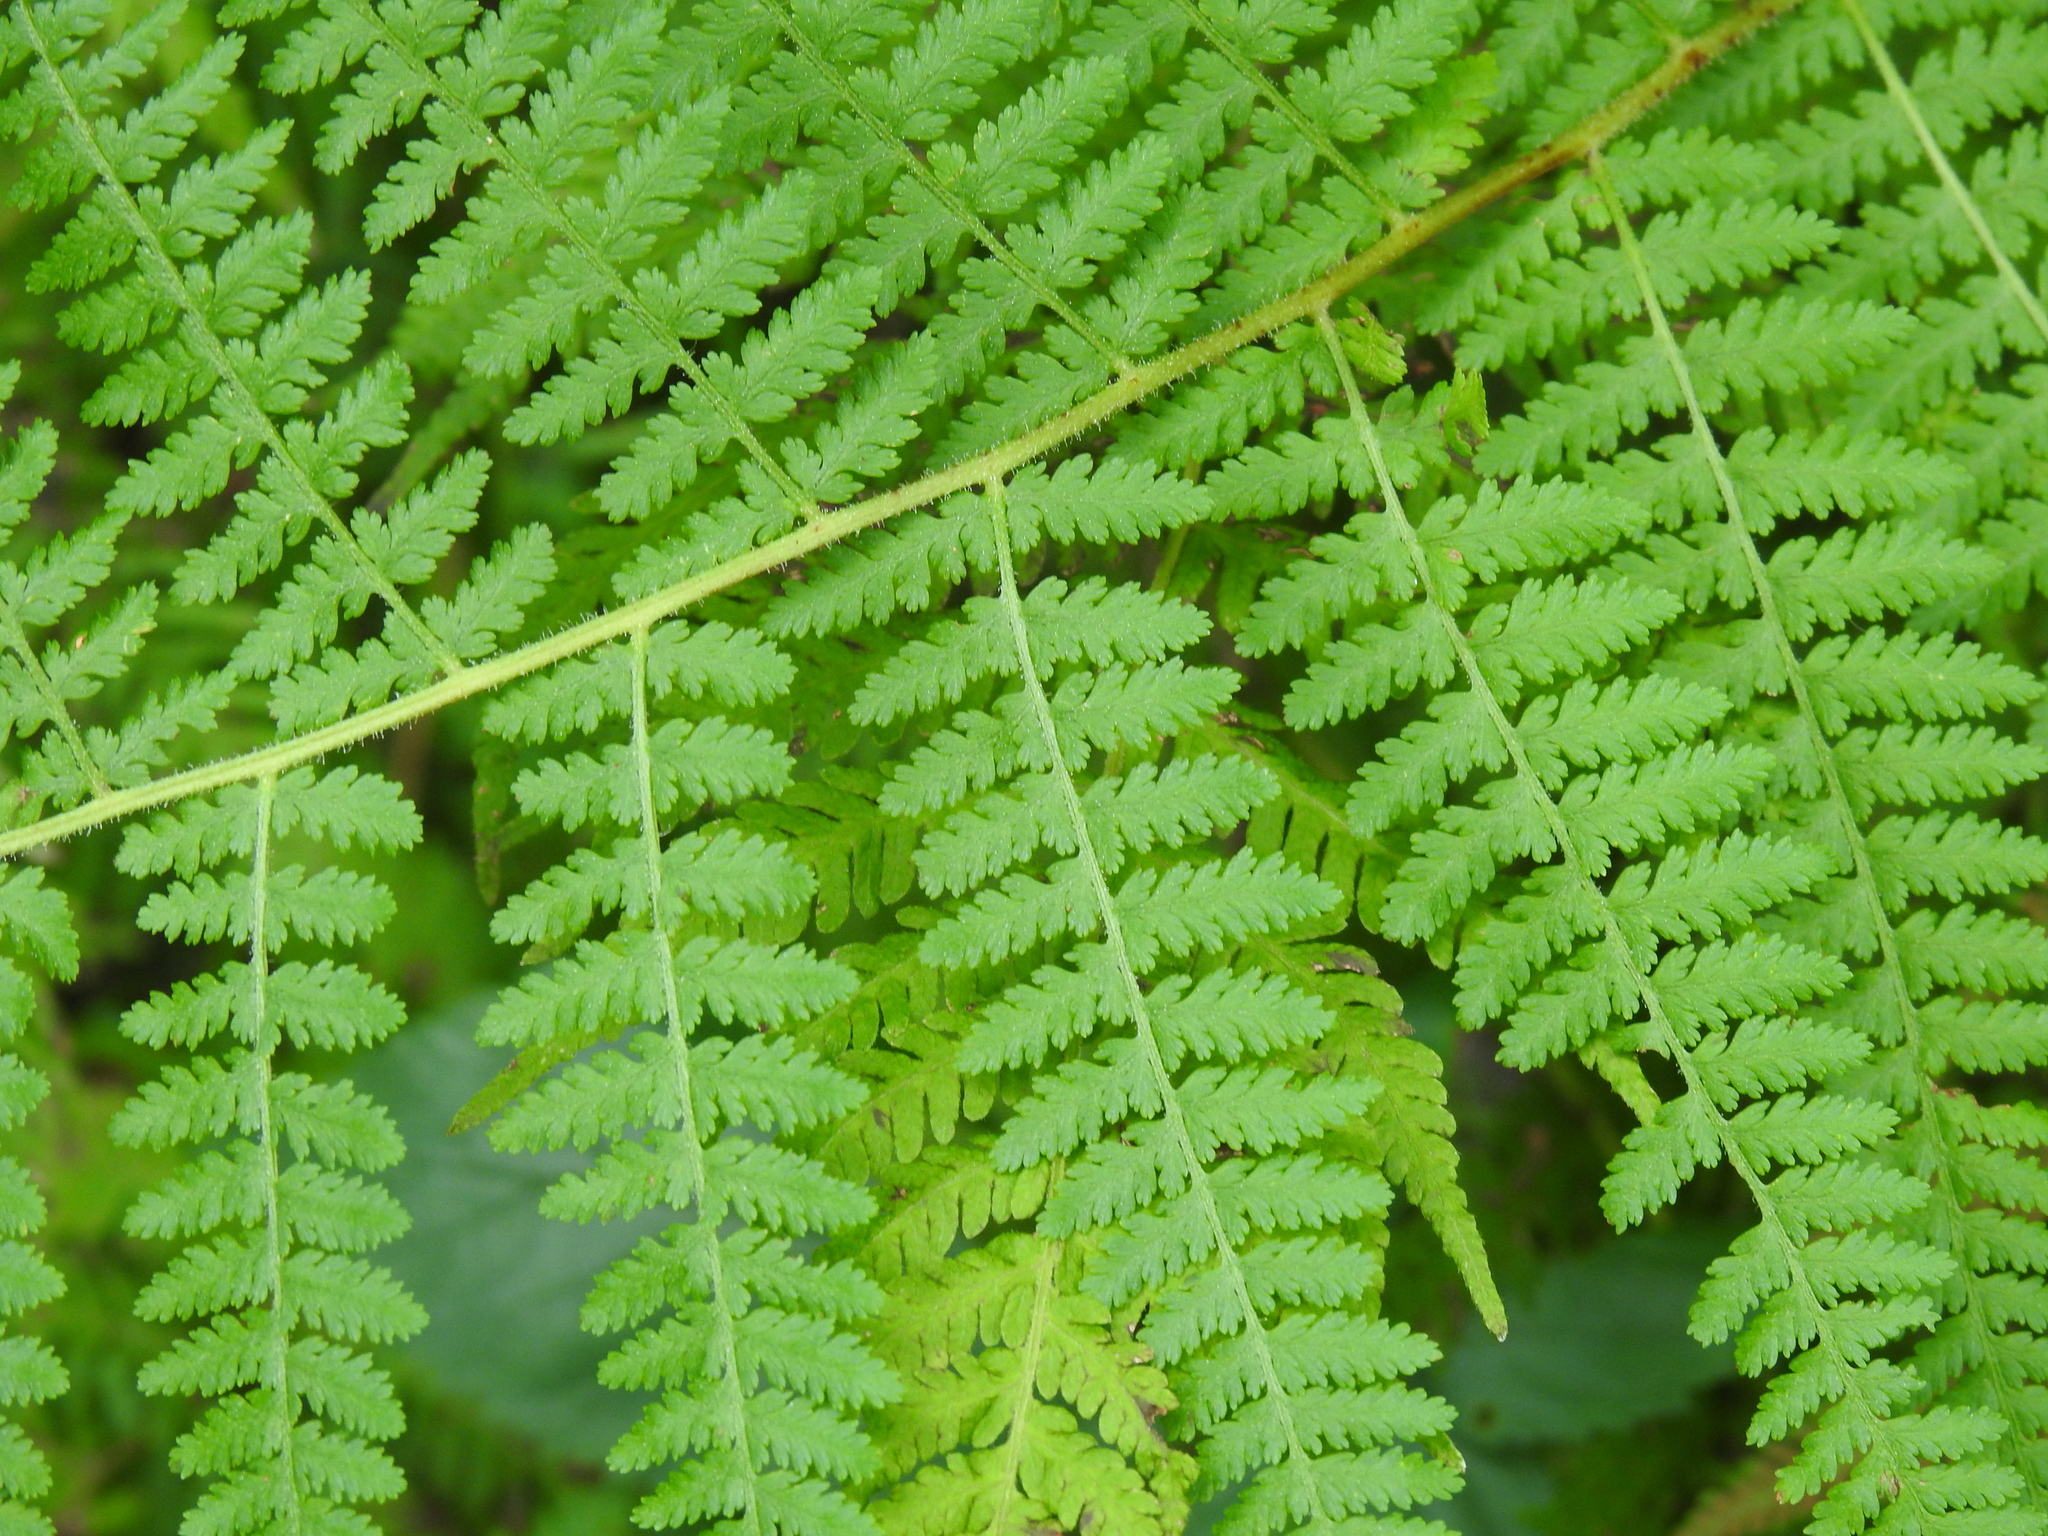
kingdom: Plantae
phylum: Tracheophyta
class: Polypodiopsida
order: Polypodiales
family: Dennstaedtiaceae
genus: Sitobolium
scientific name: Sitobolium punctilobum
